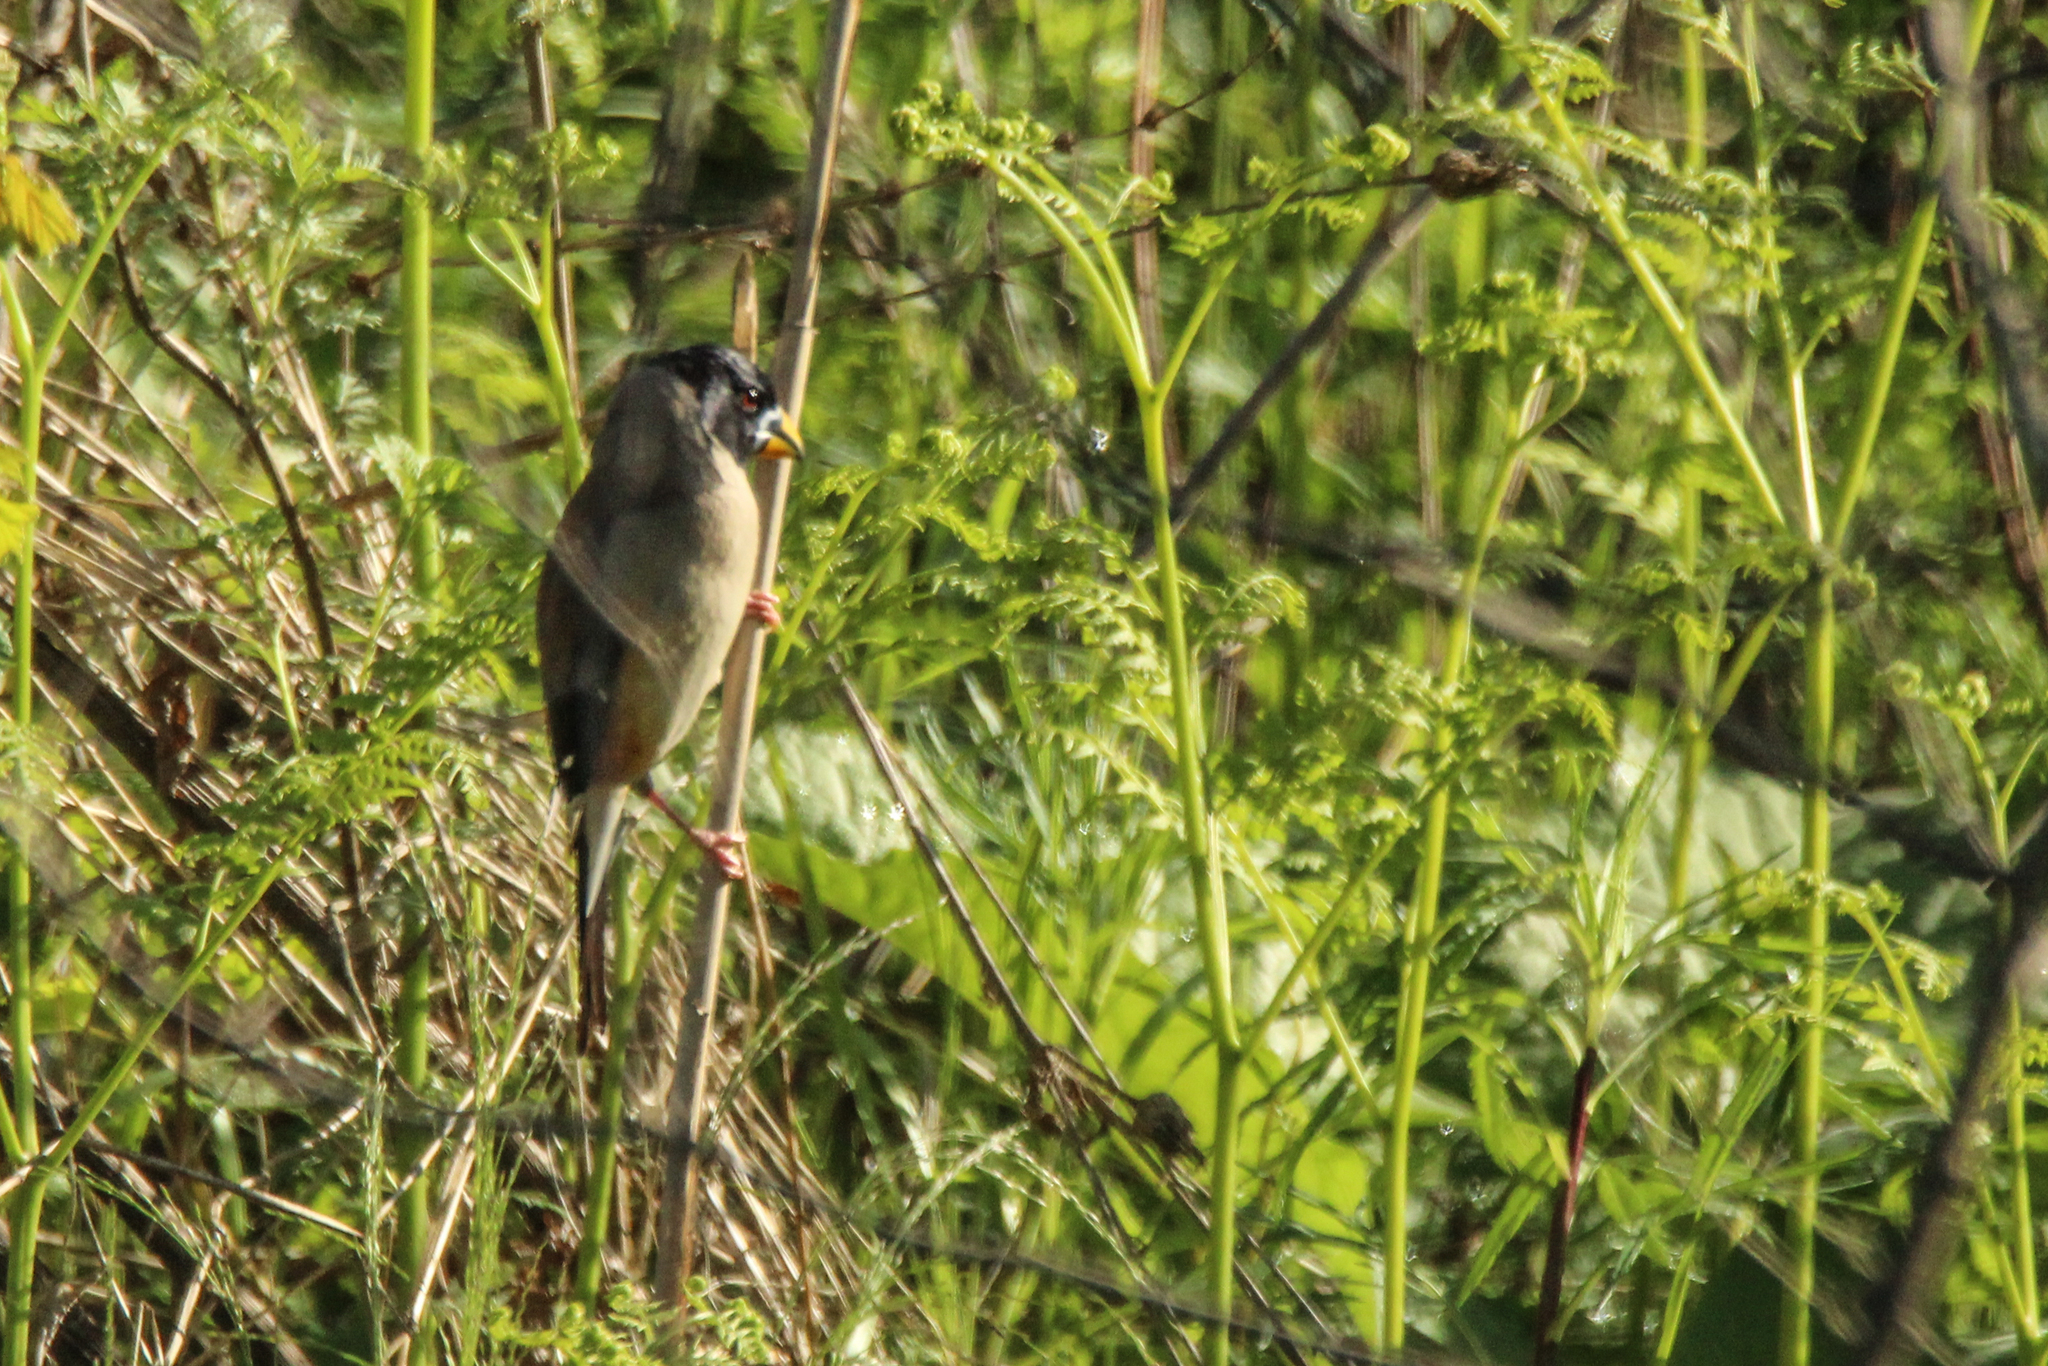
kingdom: Animalia
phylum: Chordata
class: Aves
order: Passeriformes
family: Fringillidae
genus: Eophona
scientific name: Eophona migratoria
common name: Yellow-billed grosbeak
